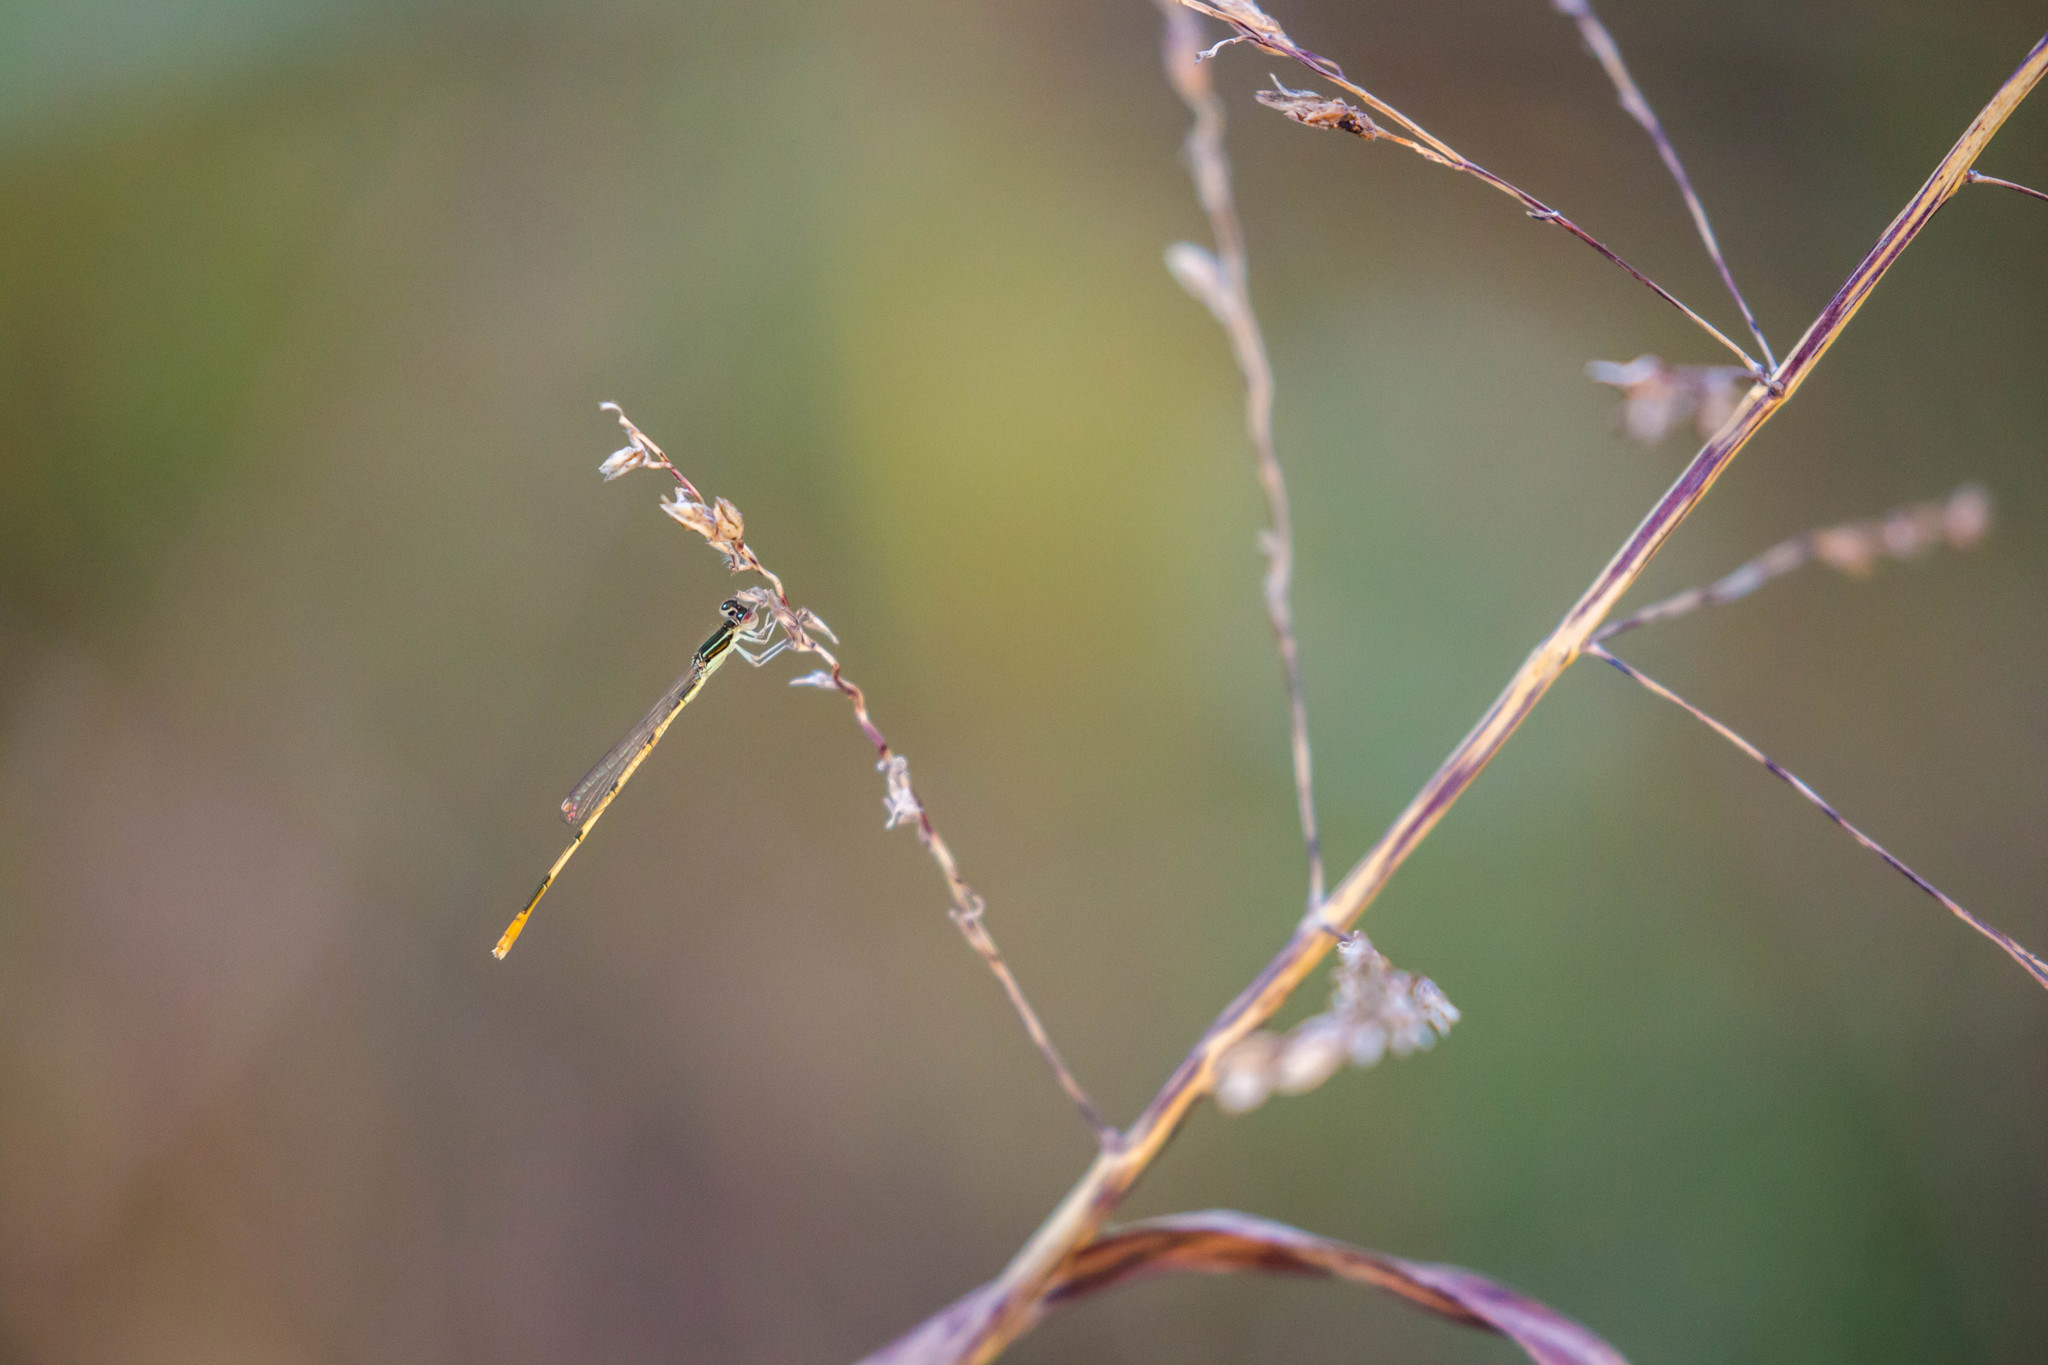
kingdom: Animalia
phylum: Arthropoda
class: Insecta
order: Odonata
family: Coenagrionidae
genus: Ischnura
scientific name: Ischnura hastata
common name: Citrine forktail
